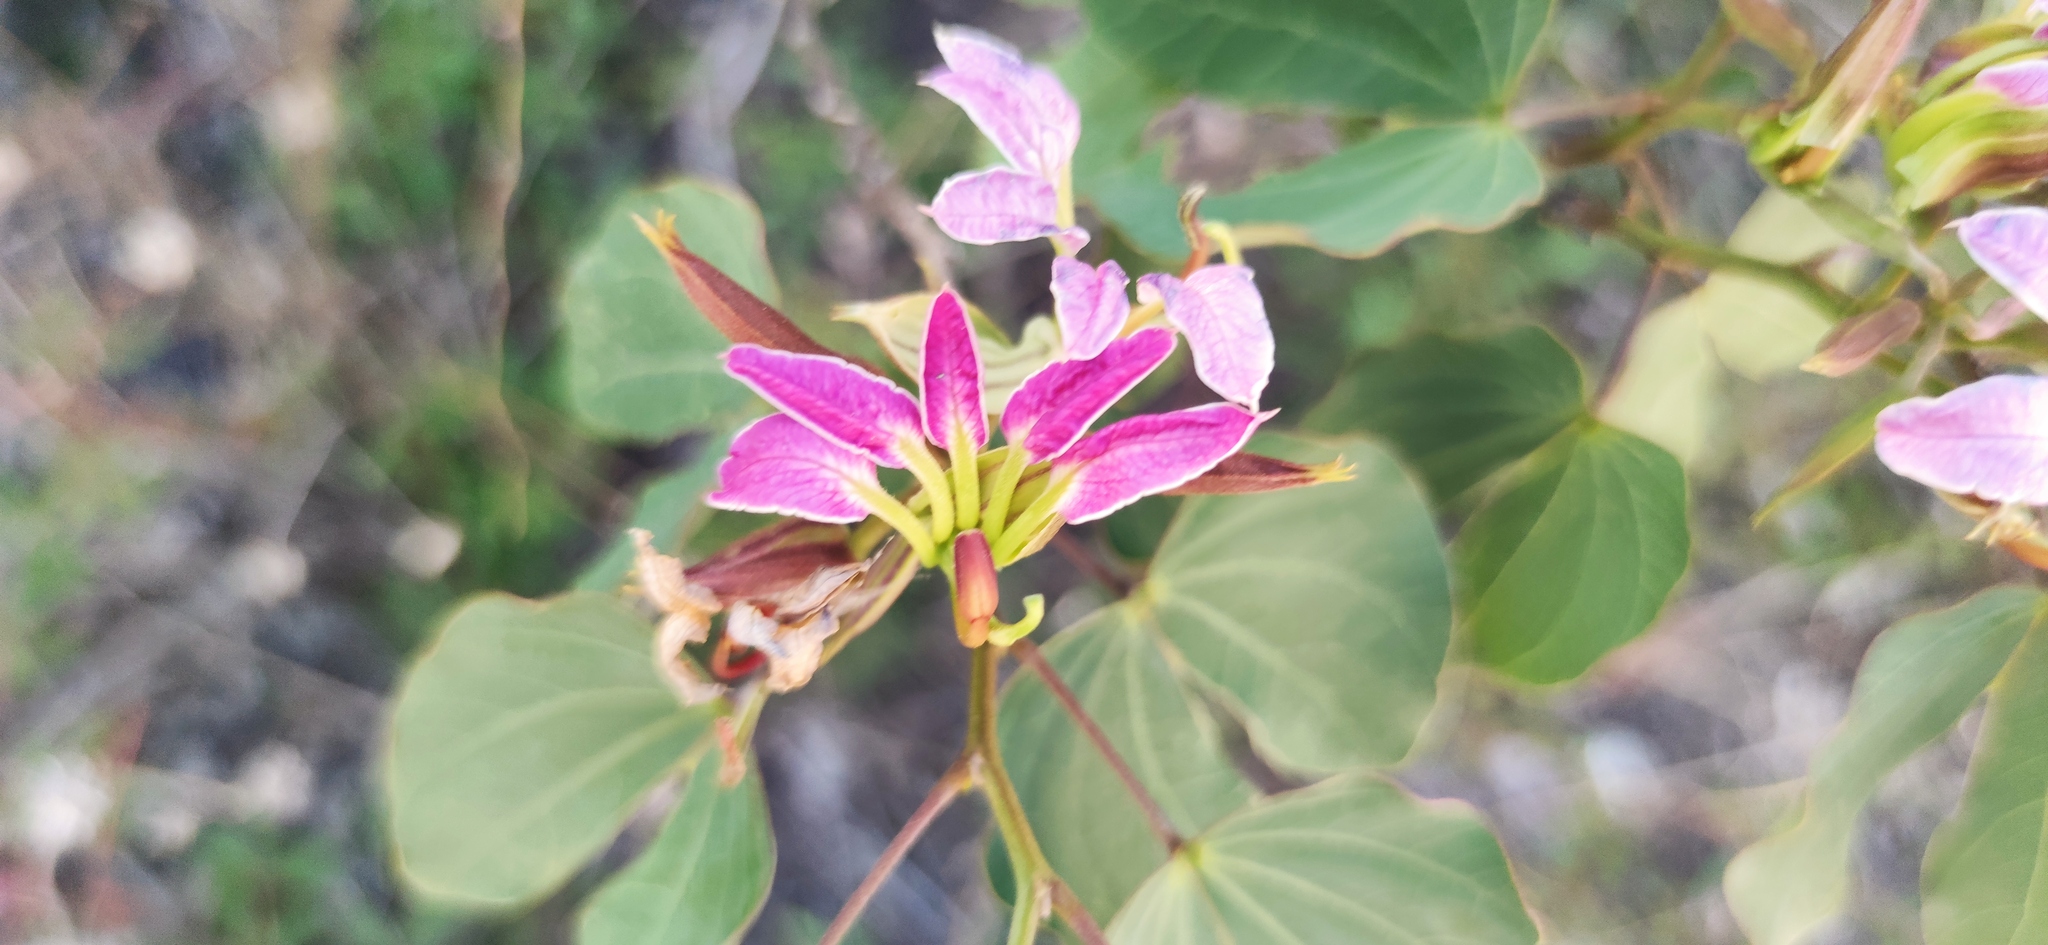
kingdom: Plantae
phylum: Tracheophyta
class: Magnoliopsida
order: Fabales
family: Fabaceae
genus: Bauhinia
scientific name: Bauhinia macranthera
